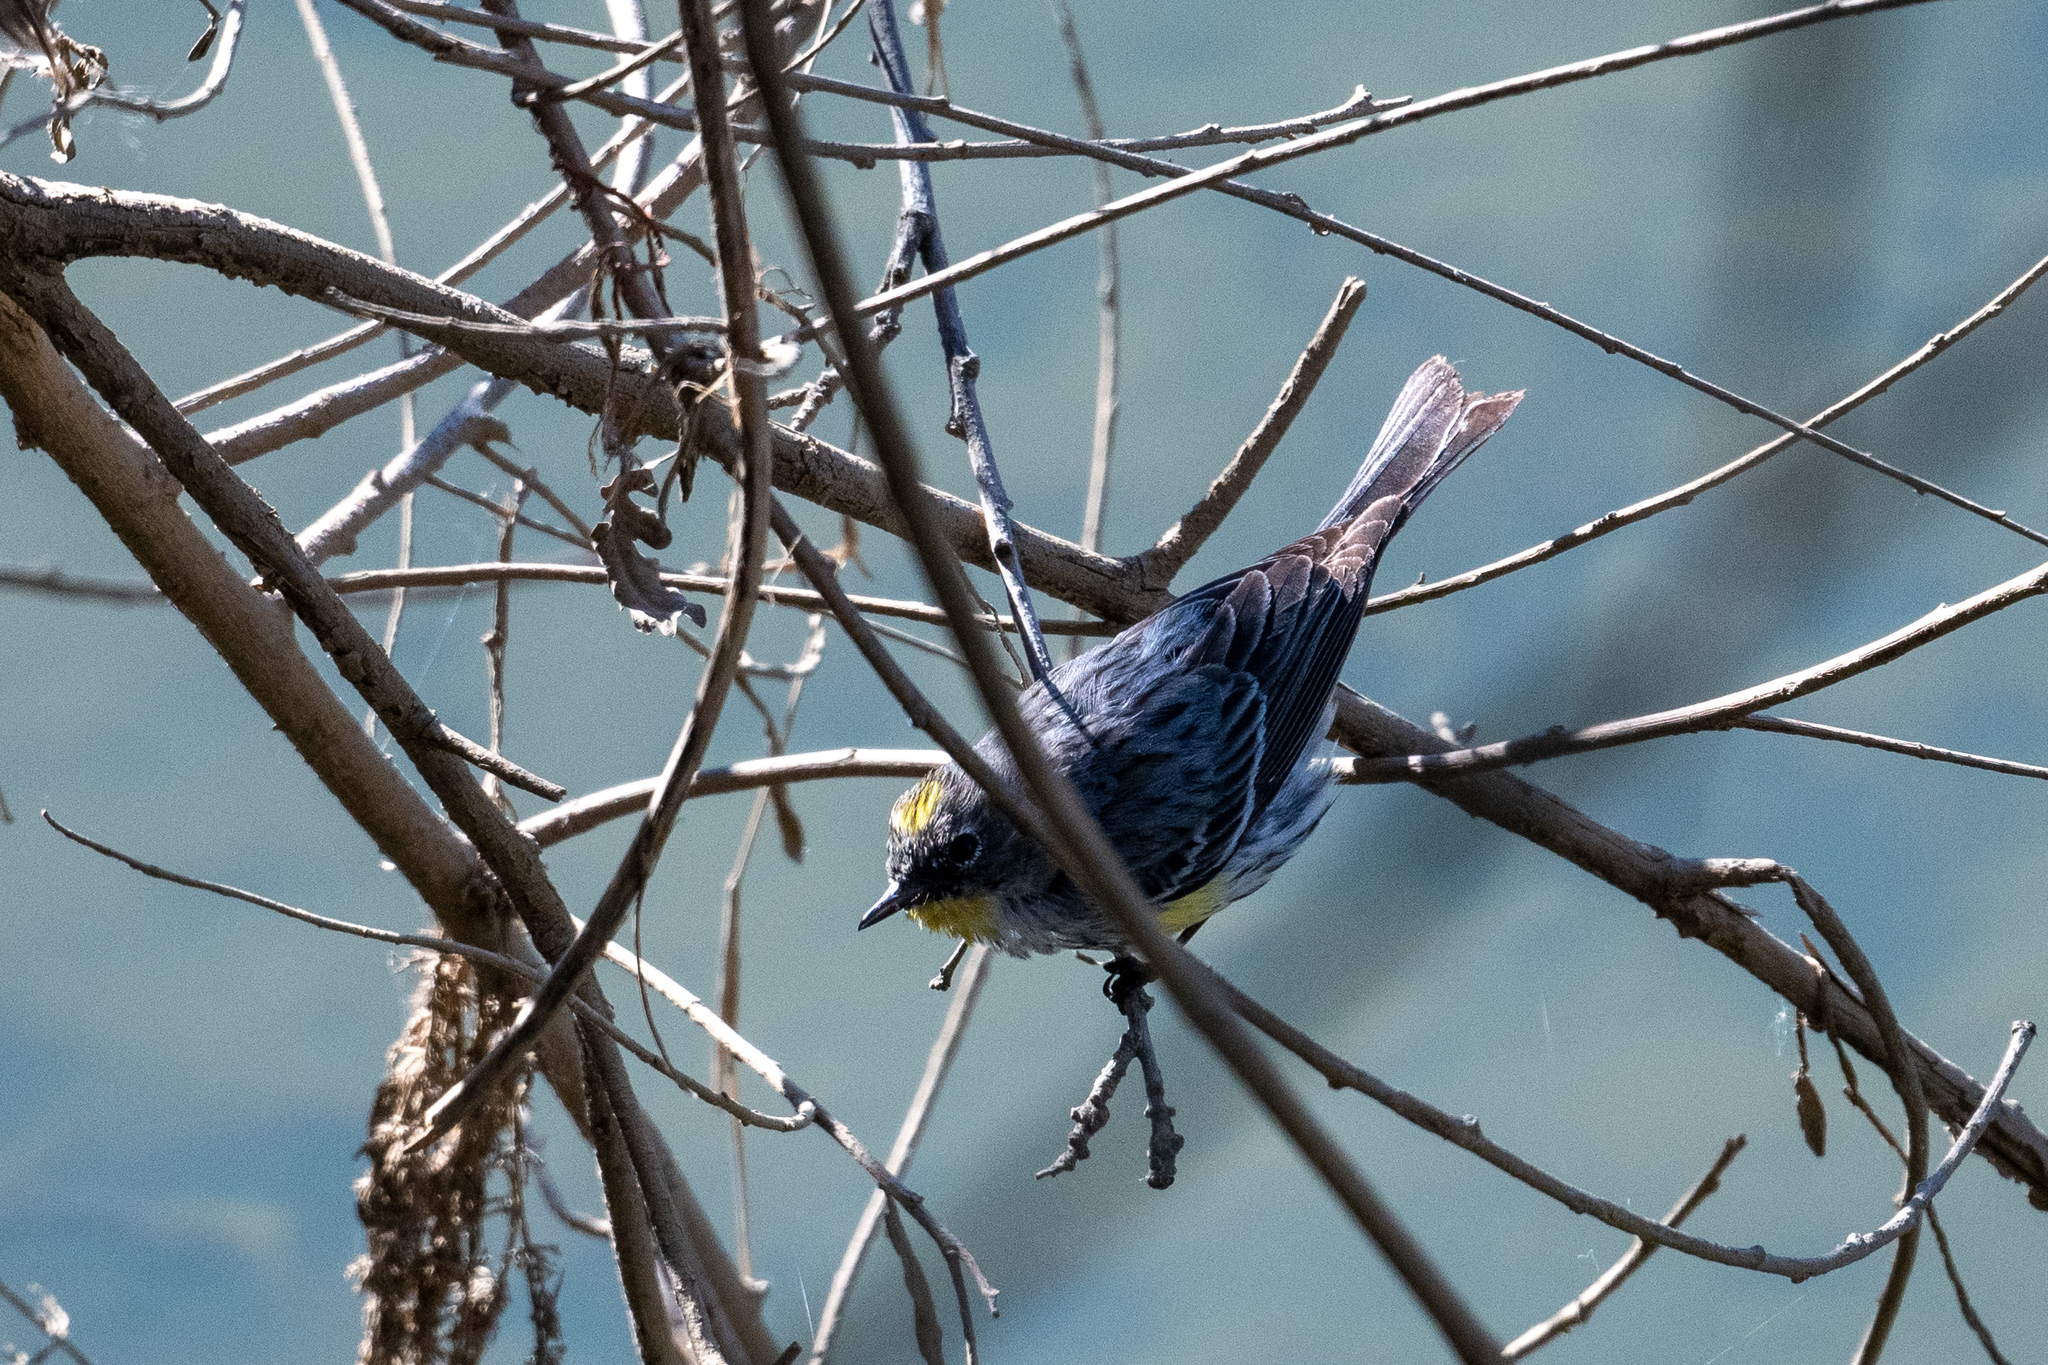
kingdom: Animalia
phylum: Chordata
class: Aves
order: Passeriformes
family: Parulidae
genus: Setophaga
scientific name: Setophaga coronata
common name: Myrtle warbler
